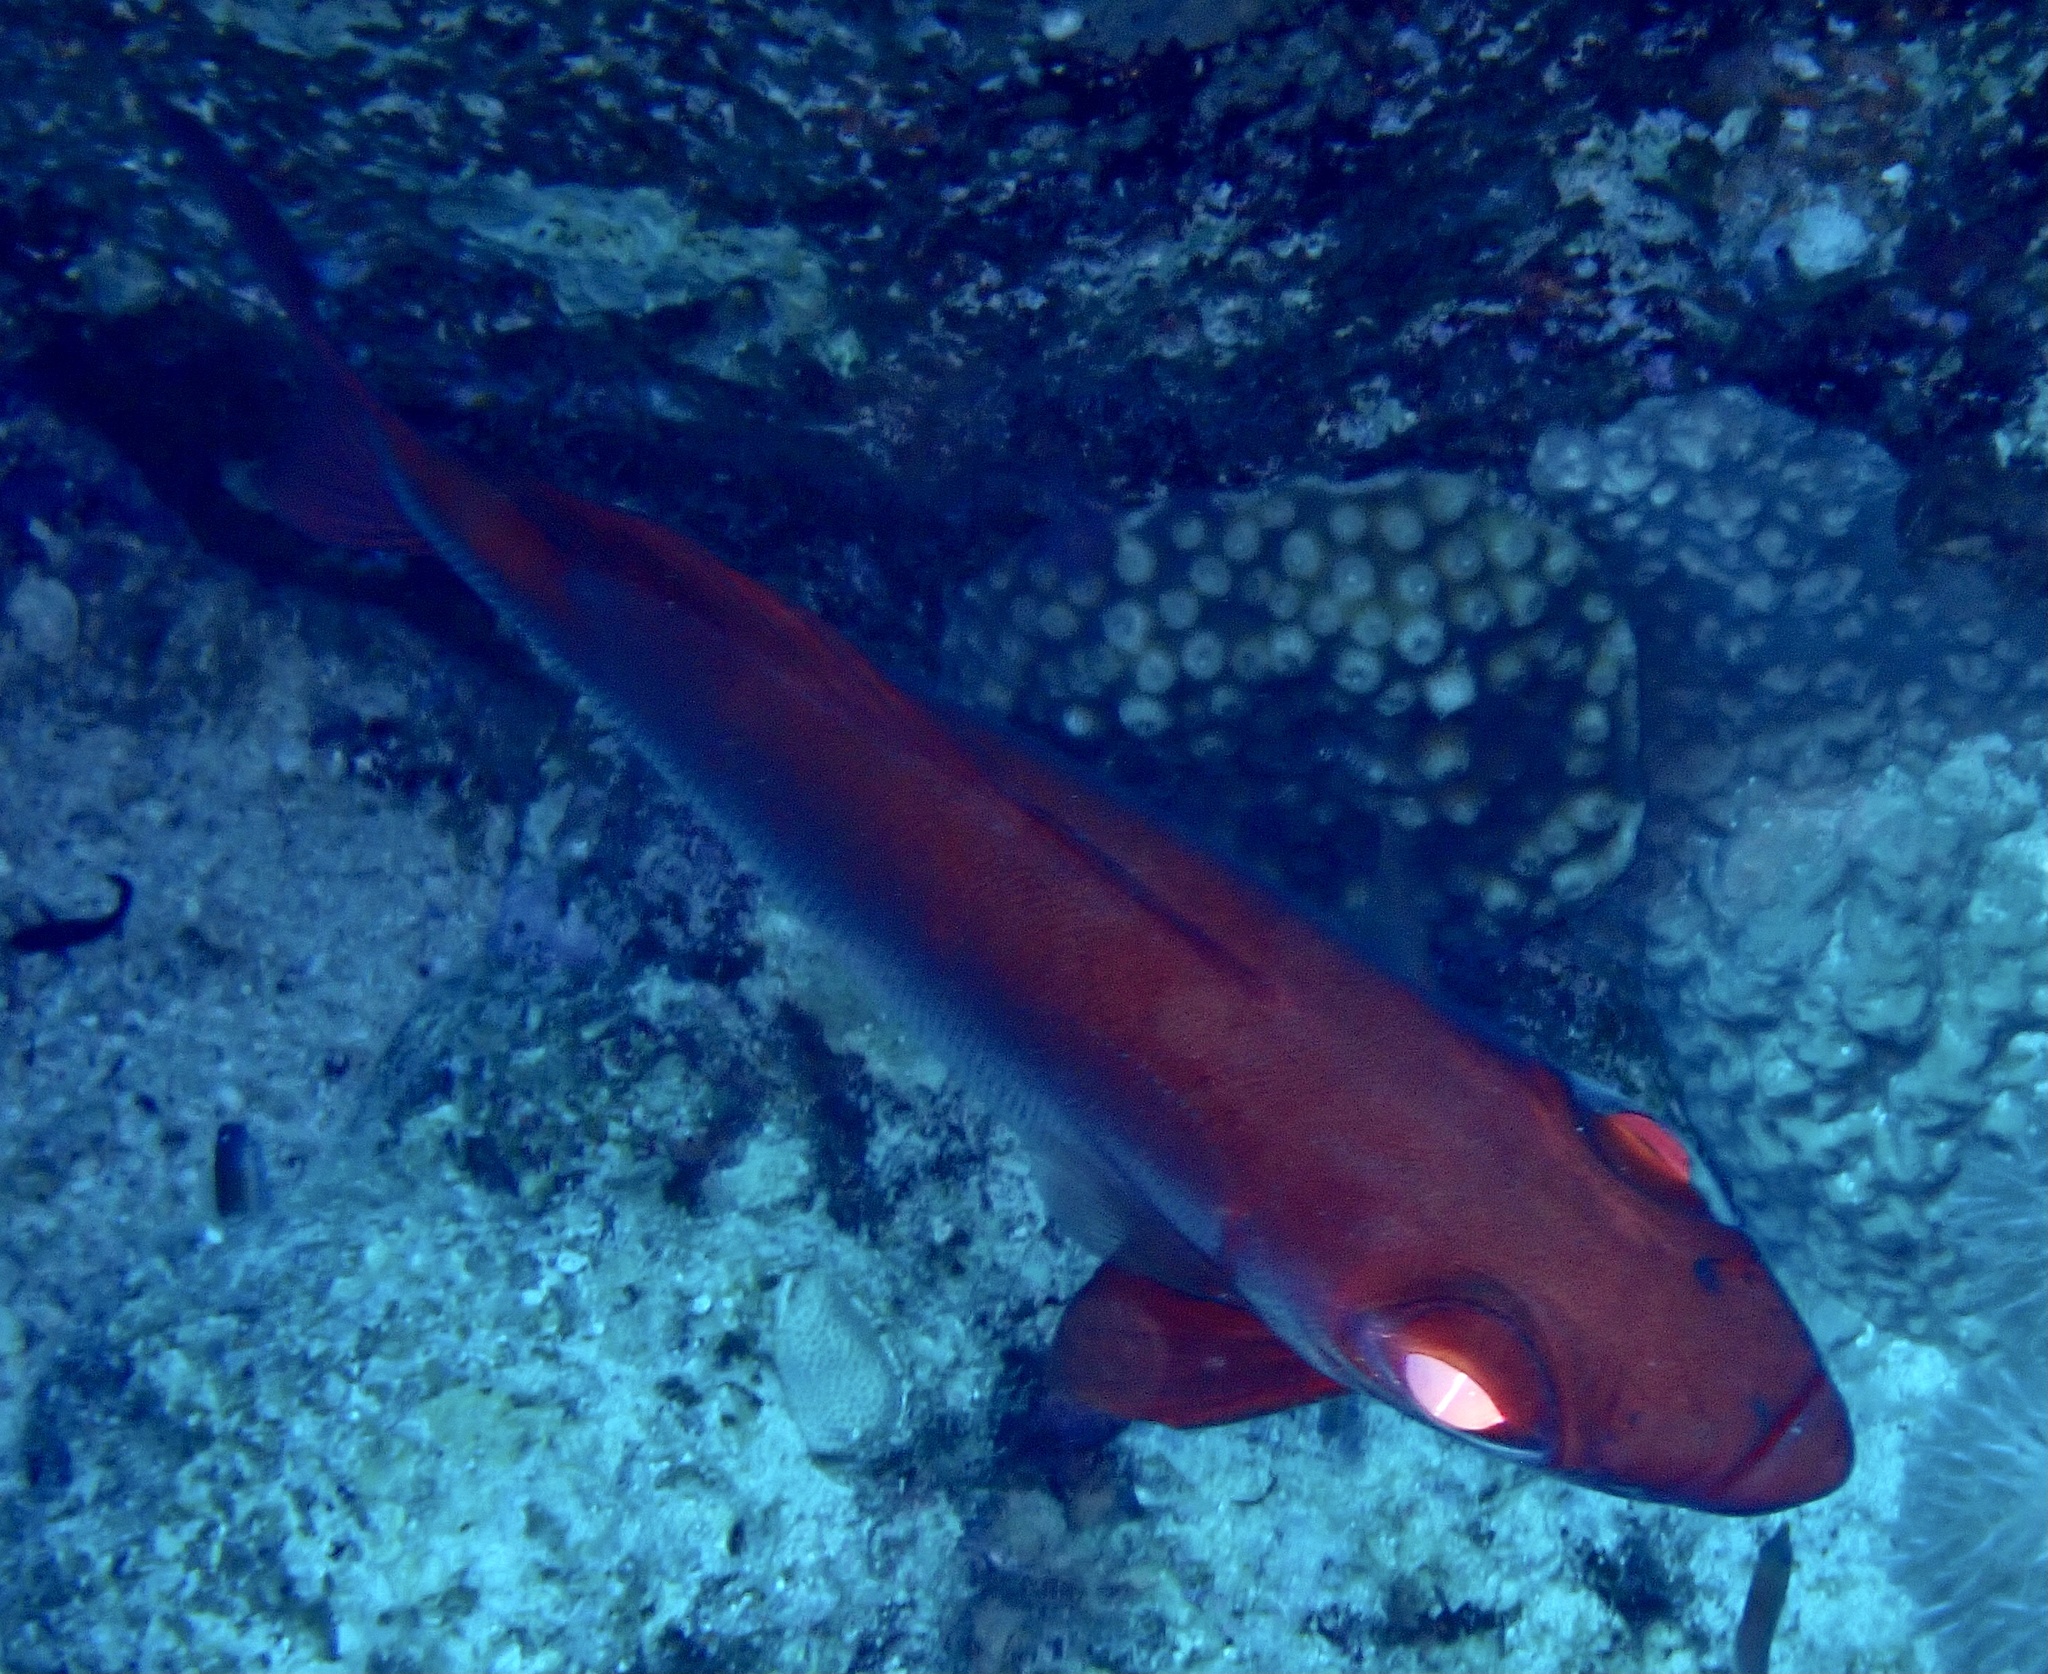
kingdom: Animalia
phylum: Chordata
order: Perciformes
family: Priacanthidae
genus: Priacanthus
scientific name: Priacanthus hamrur
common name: Moontail bullseye
